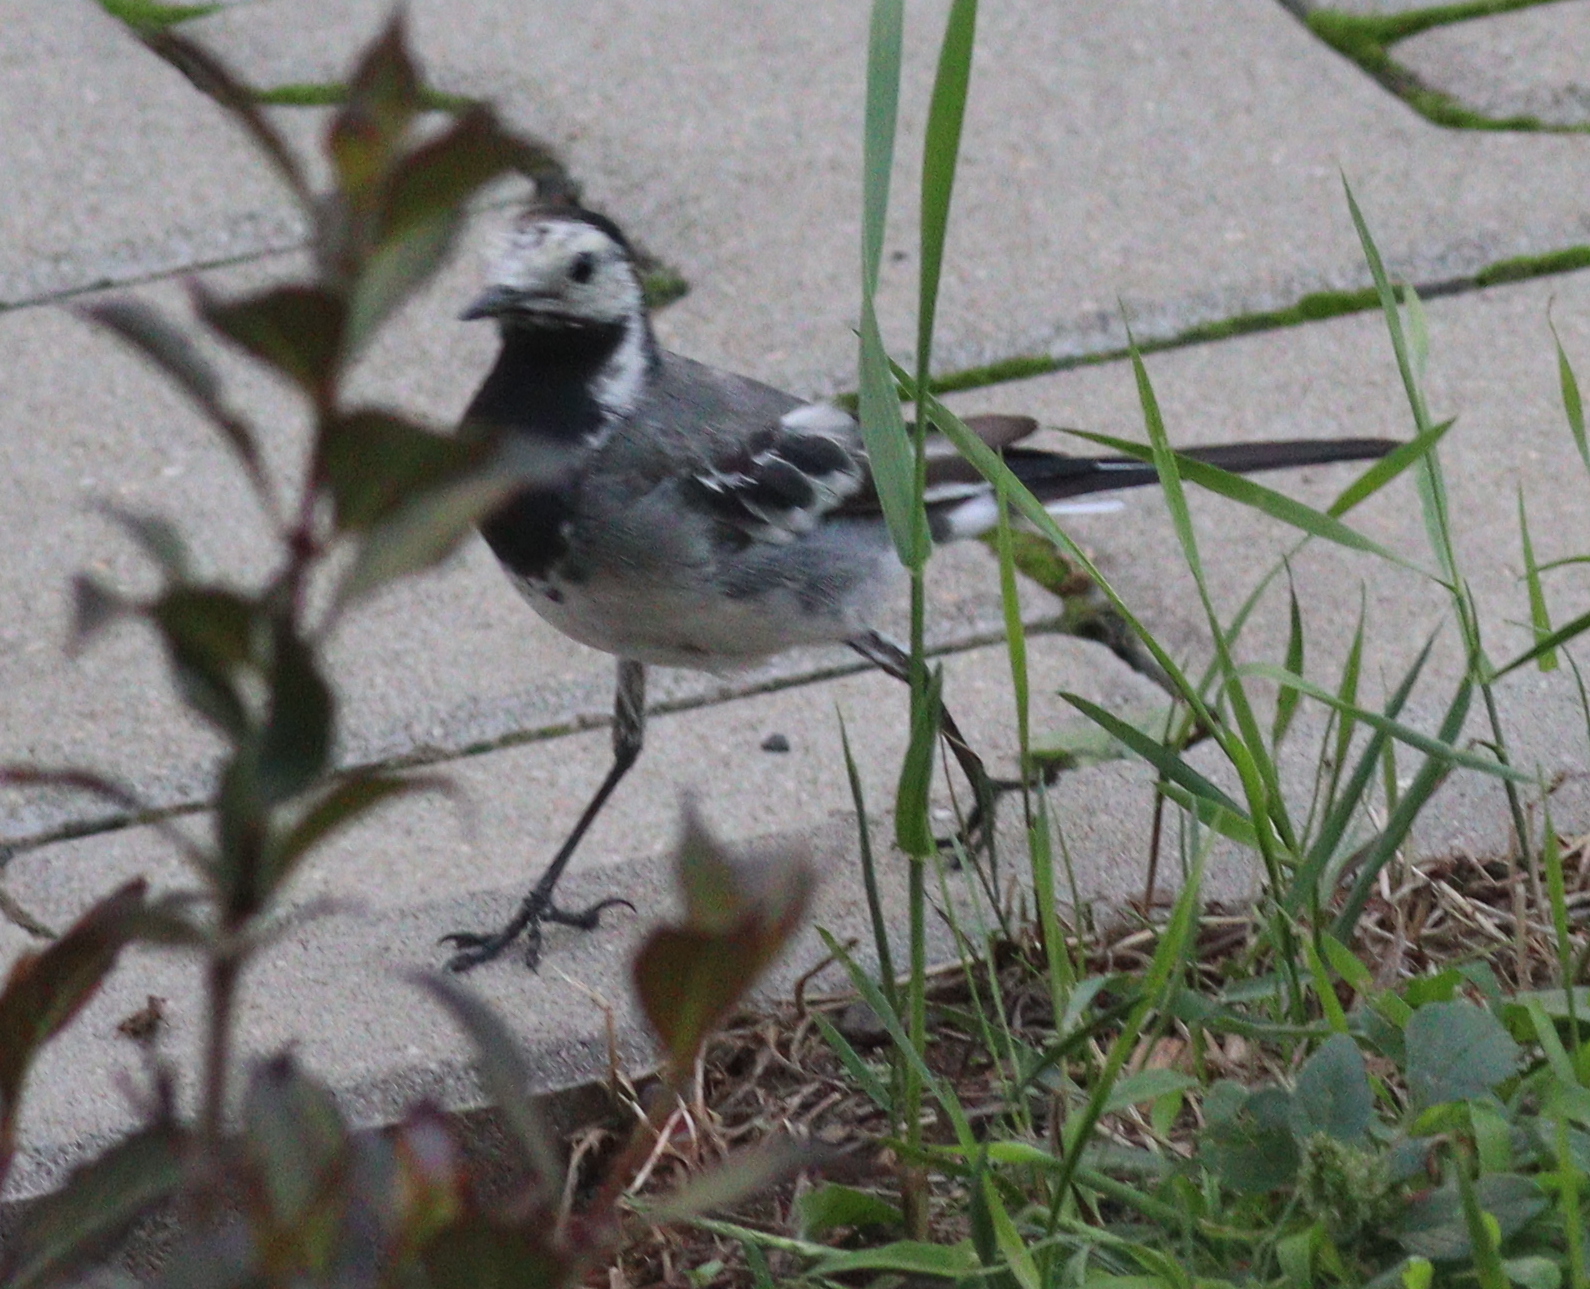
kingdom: Animalia
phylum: Chordata
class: Aves
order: Passeriformes
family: Motacillidae
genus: Motacilla
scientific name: Motacilla alba
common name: White wagtail
